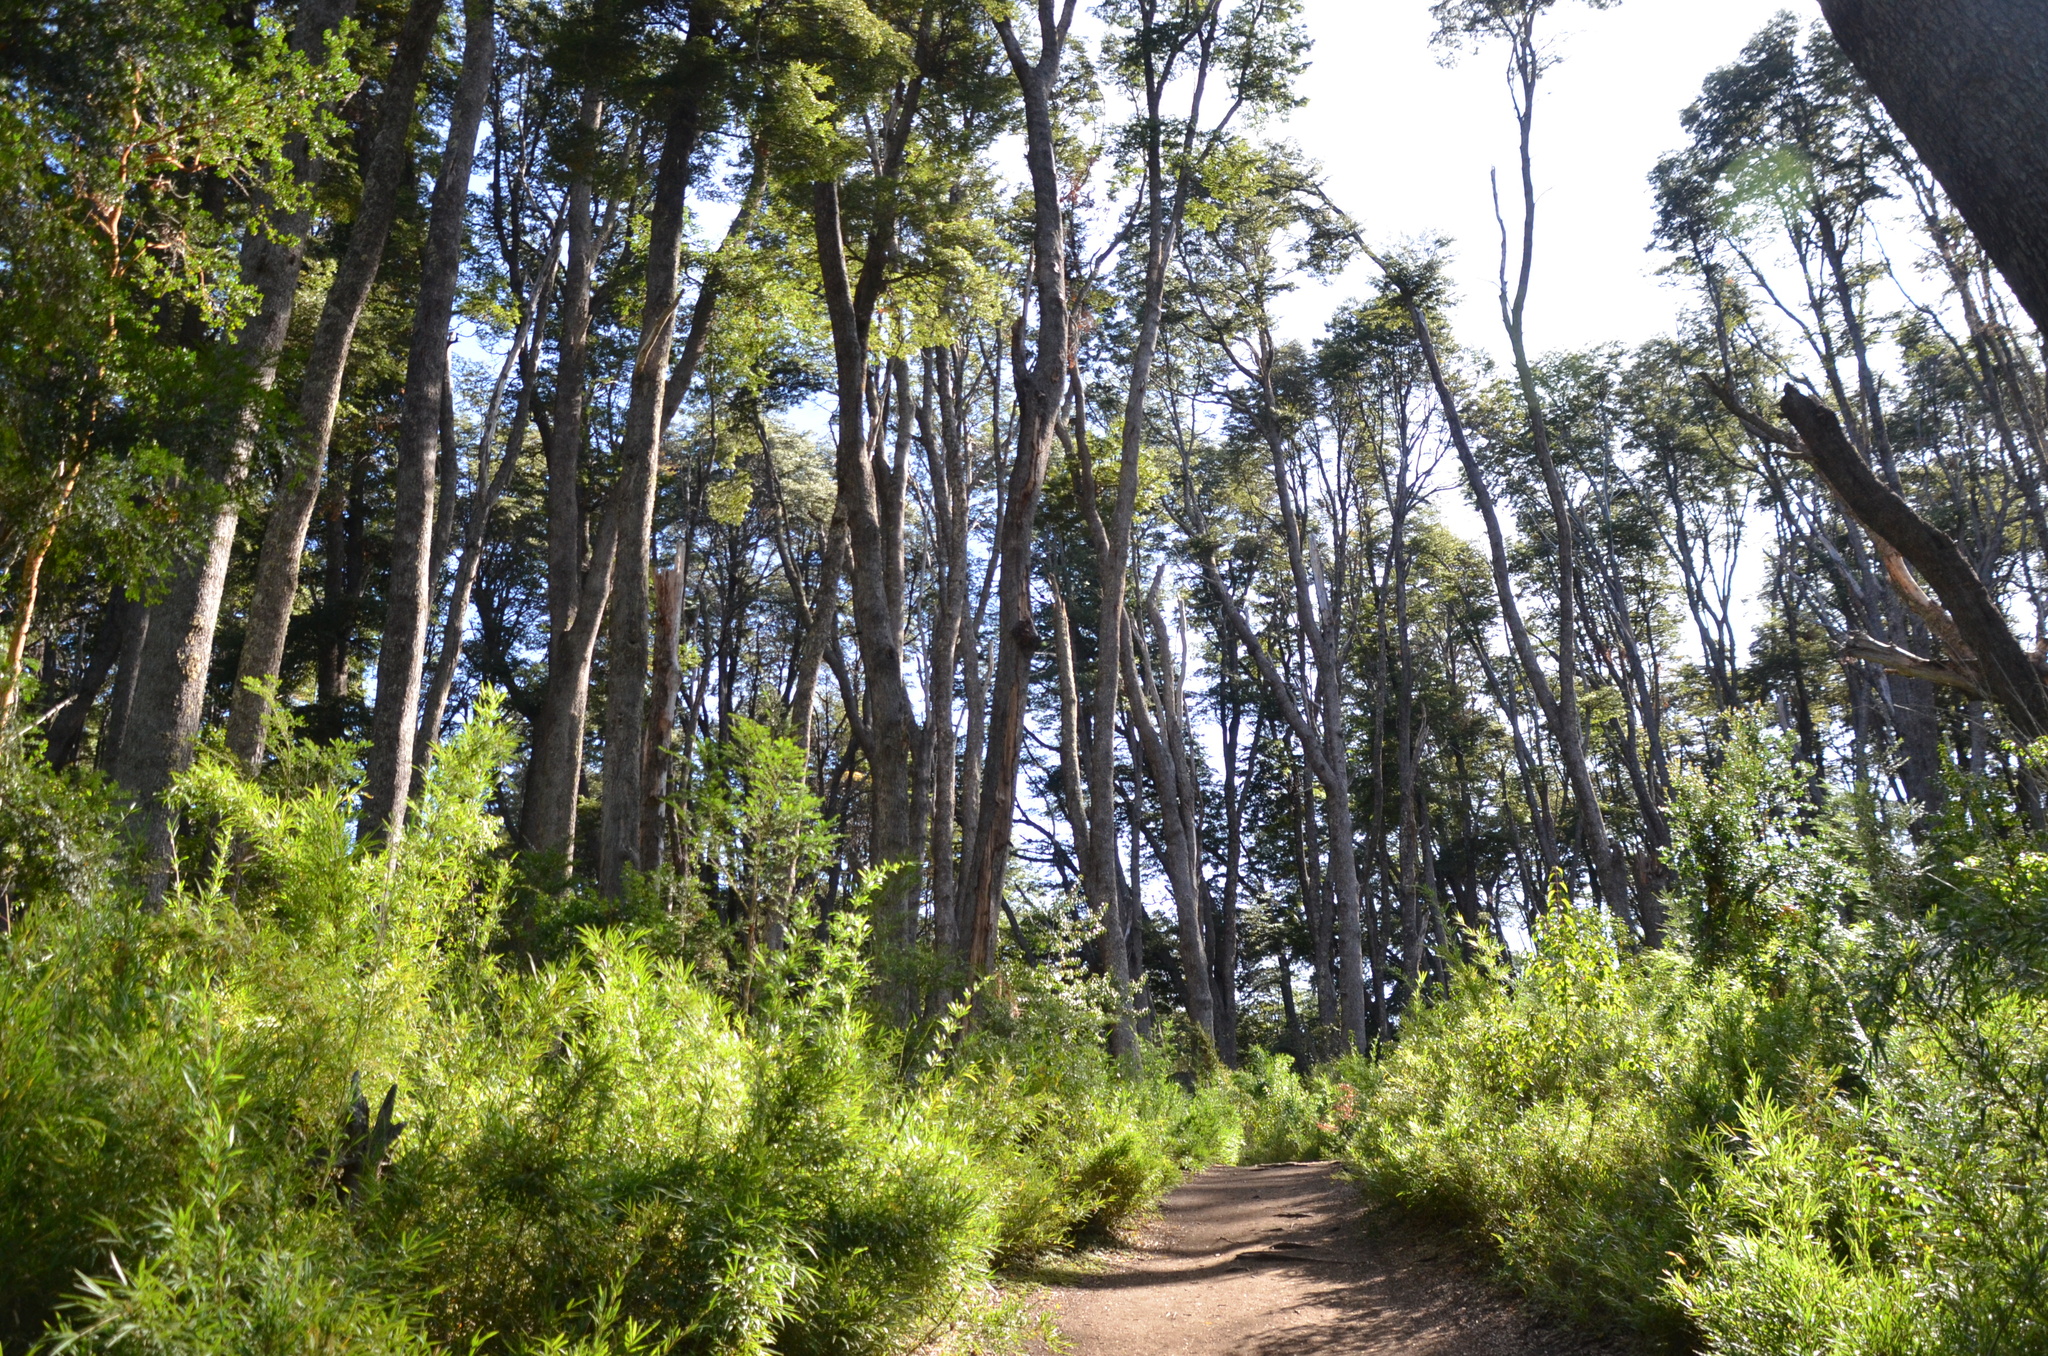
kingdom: Plantae
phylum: Tracheophyta
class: Liliopsida
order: Poales
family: Poaceae
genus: Chusquea
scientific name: Chusquea culeou
